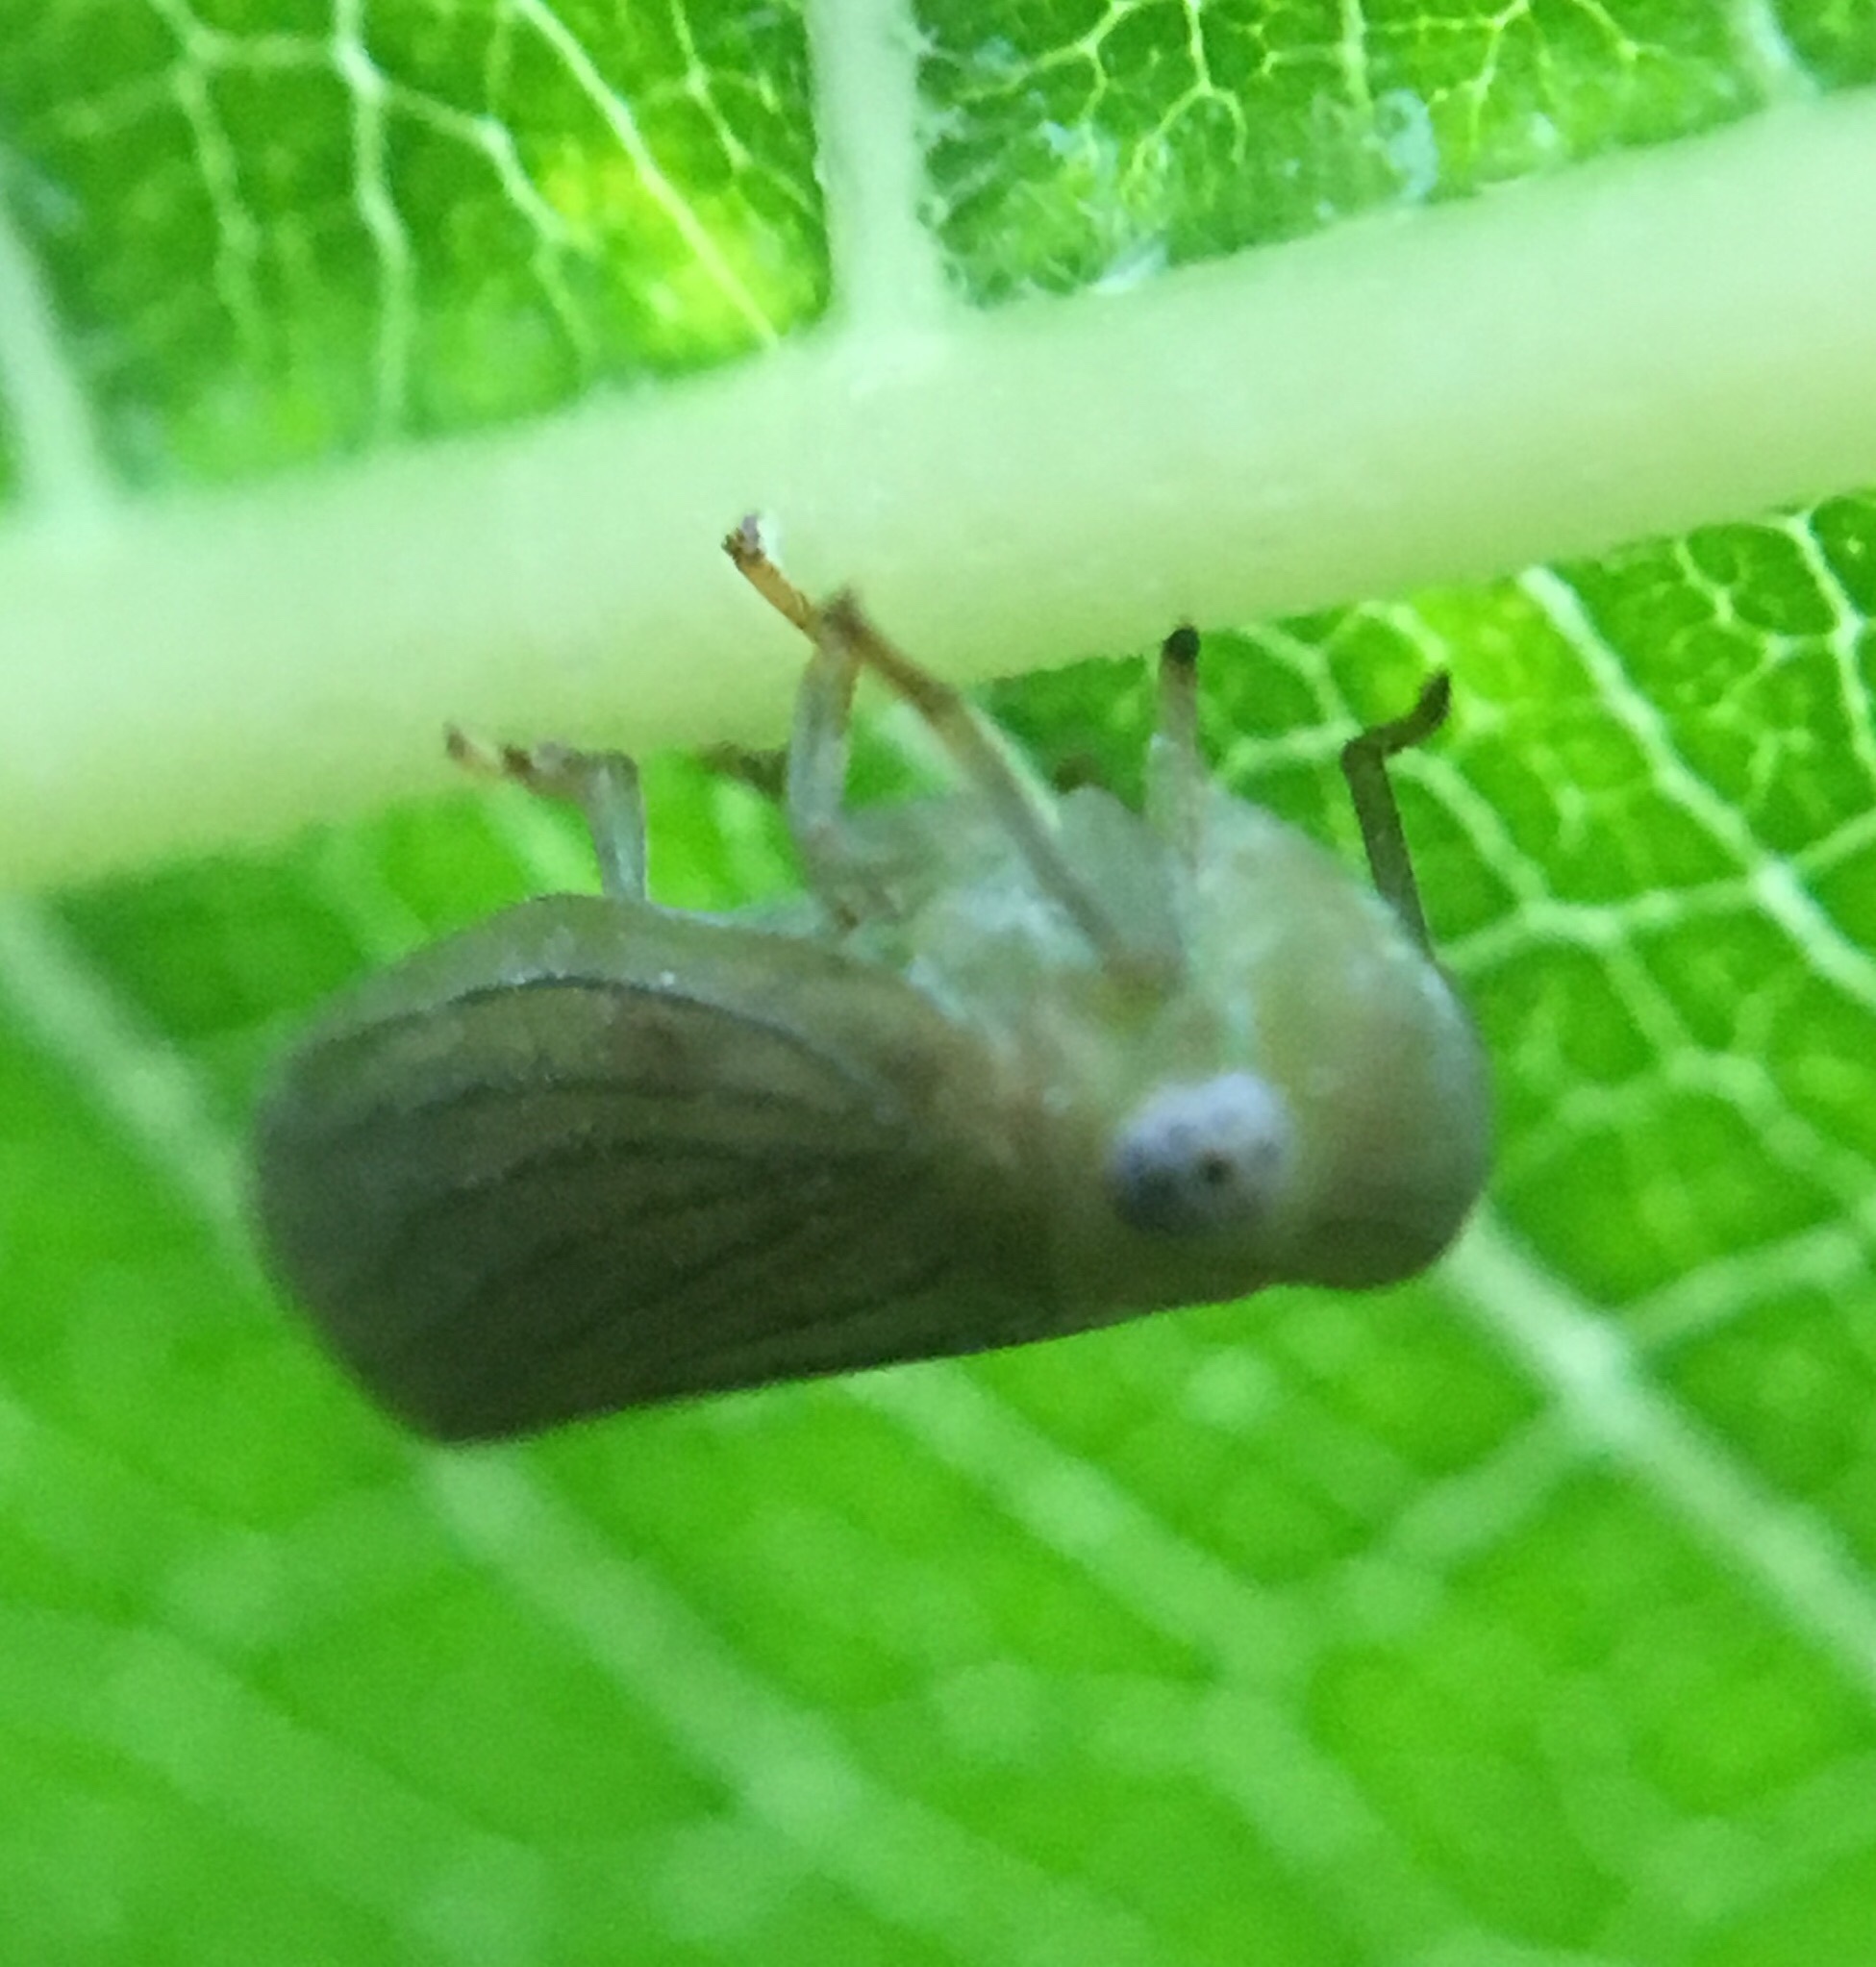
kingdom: Animalia
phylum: Arthropoda
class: Insecta
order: Hemiptera
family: Issidae
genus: Aplos
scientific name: Aplos simplex
